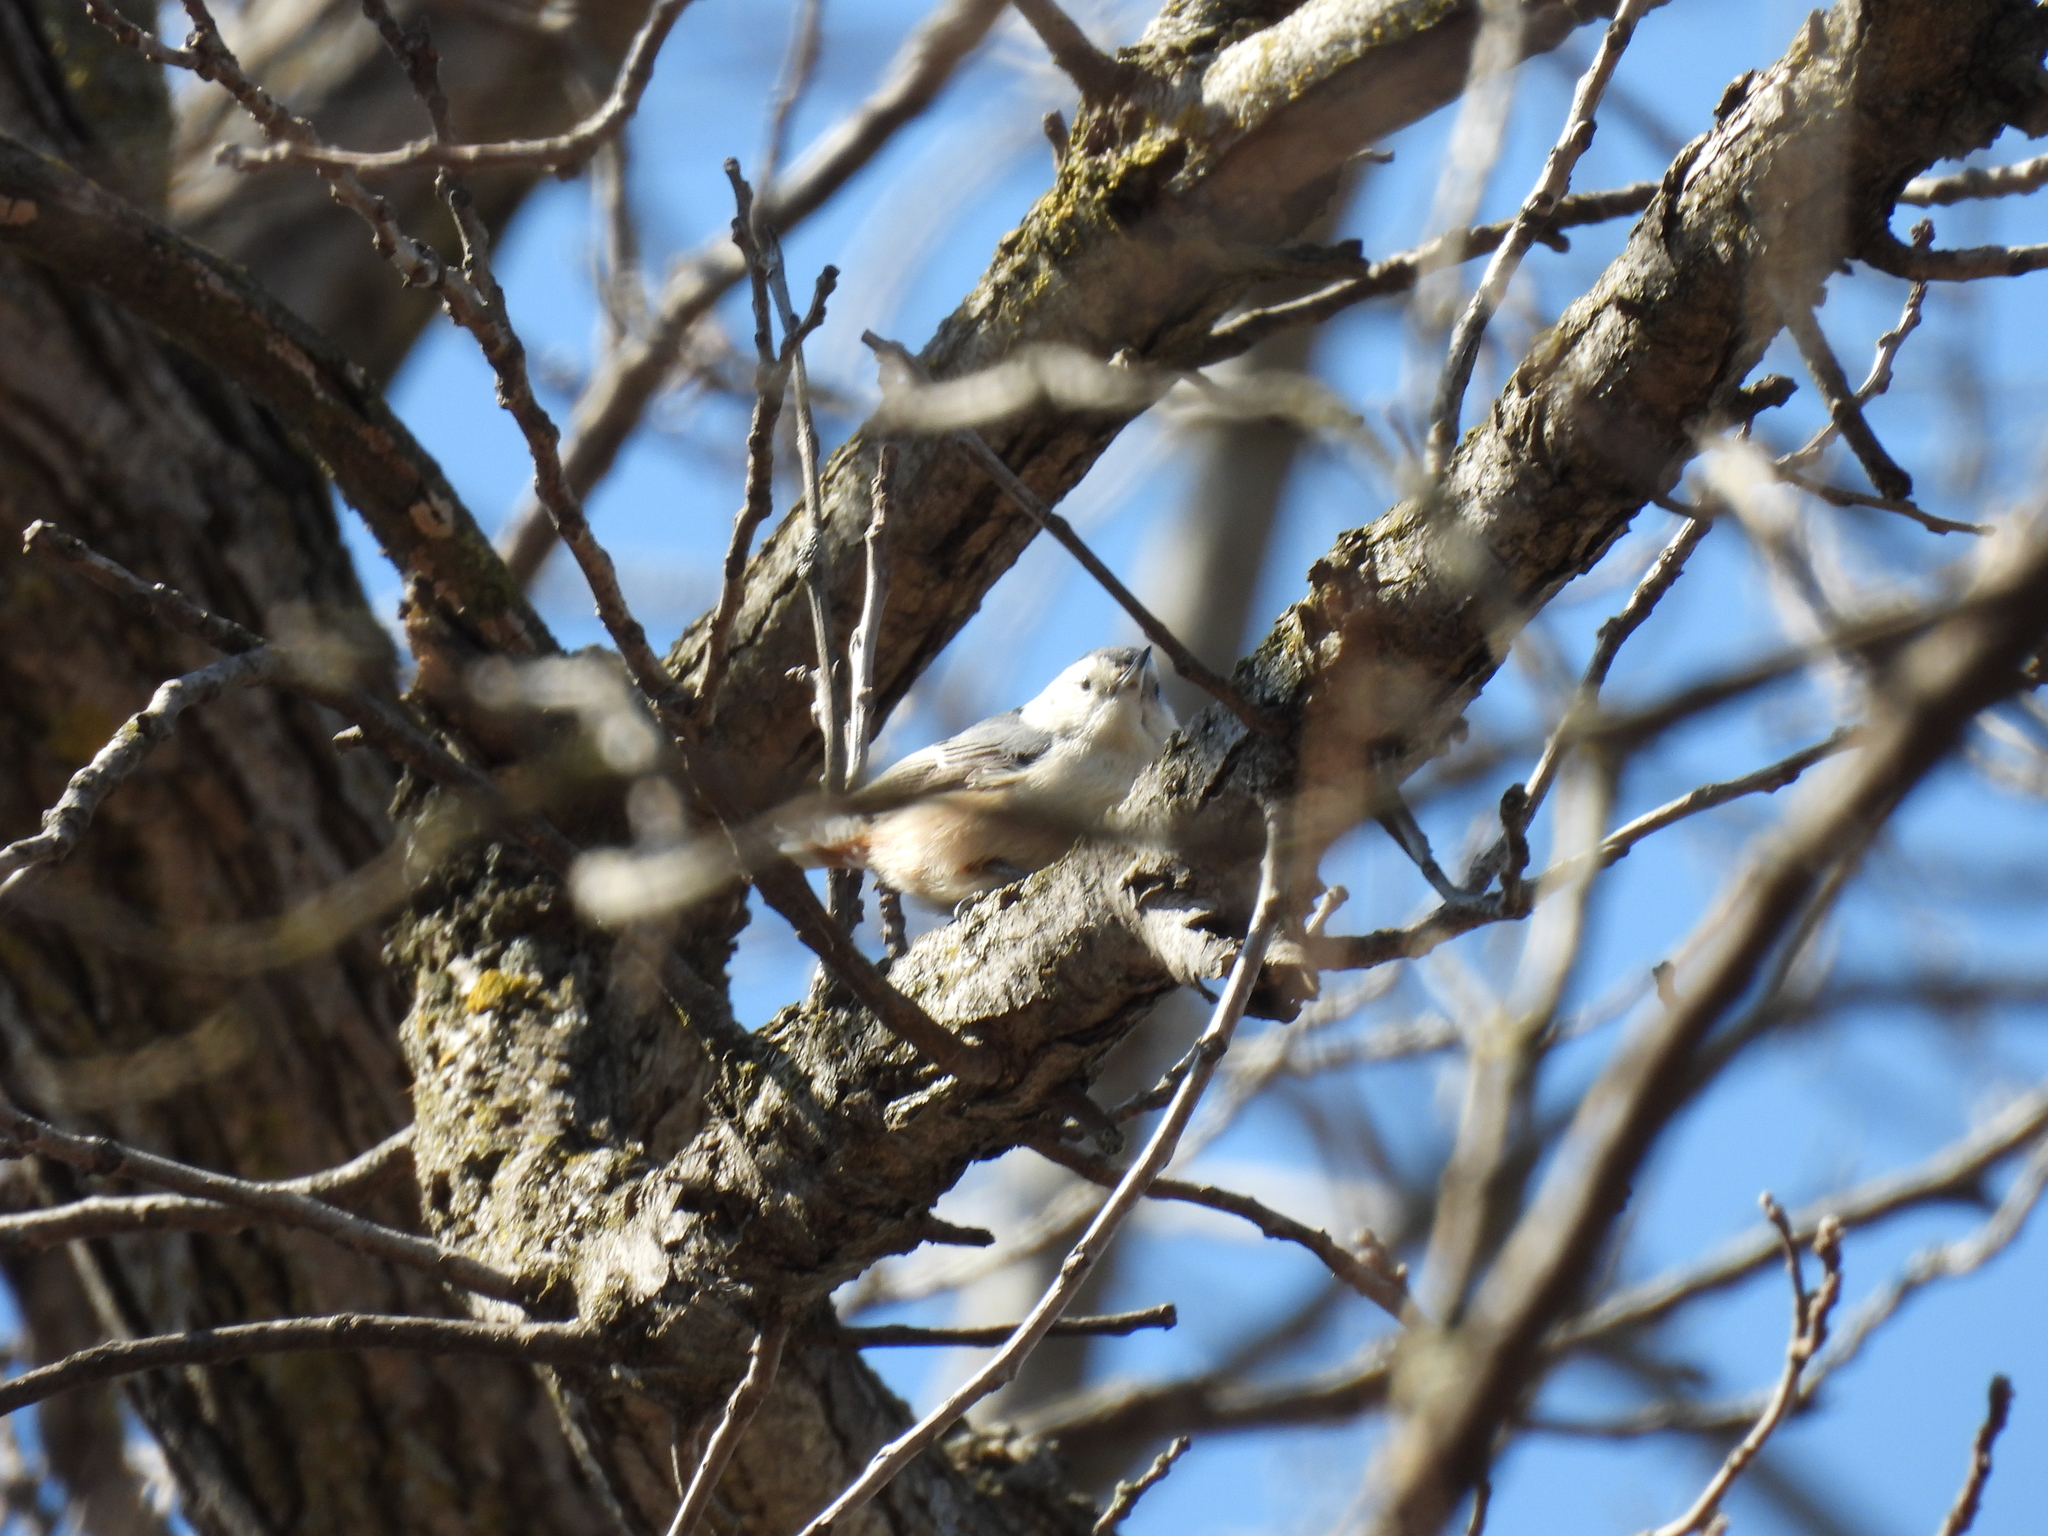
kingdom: Animalia
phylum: Chordata
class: Aves
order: Passeriformes
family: Sittidae
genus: Sitta
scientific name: Sitta carolinensis
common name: White-breasted nuthatch
